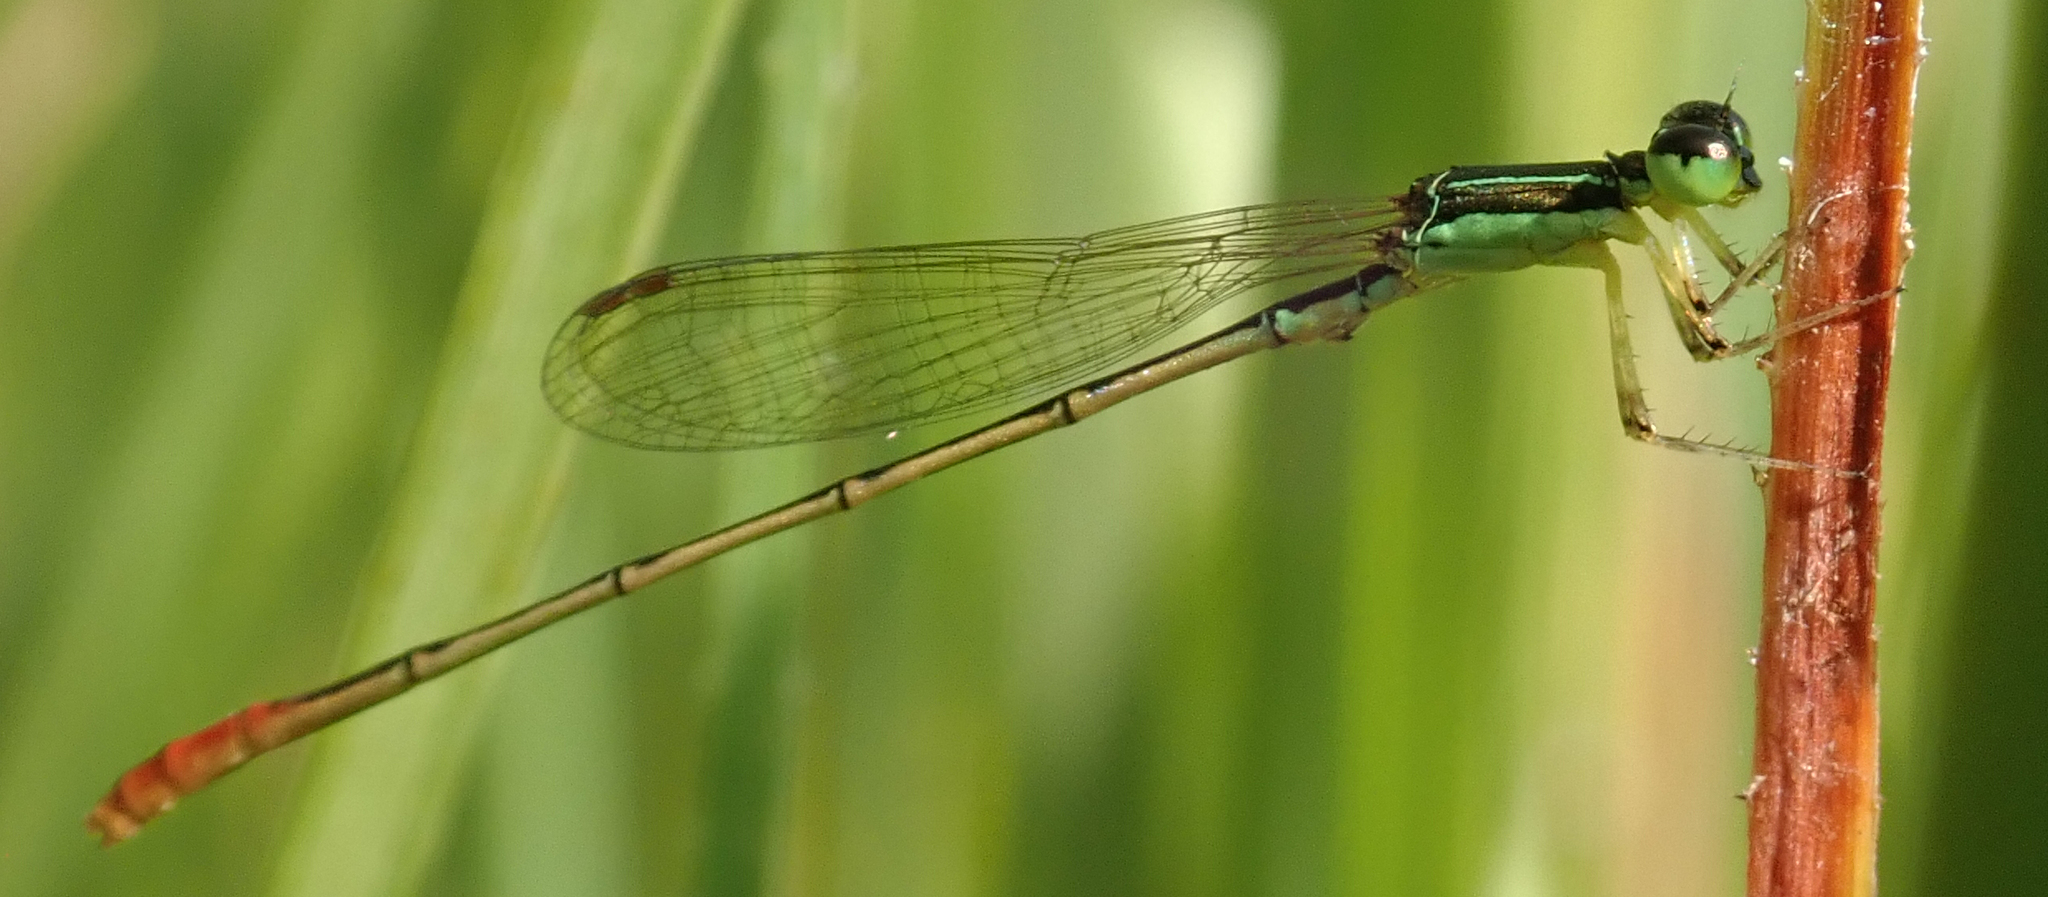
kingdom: Animalia
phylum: Arthropoda
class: Insecta
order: Odonata
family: Coenagrionidae
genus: Agriocnemis
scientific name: Agriocnemis exilis
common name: Little wisp
